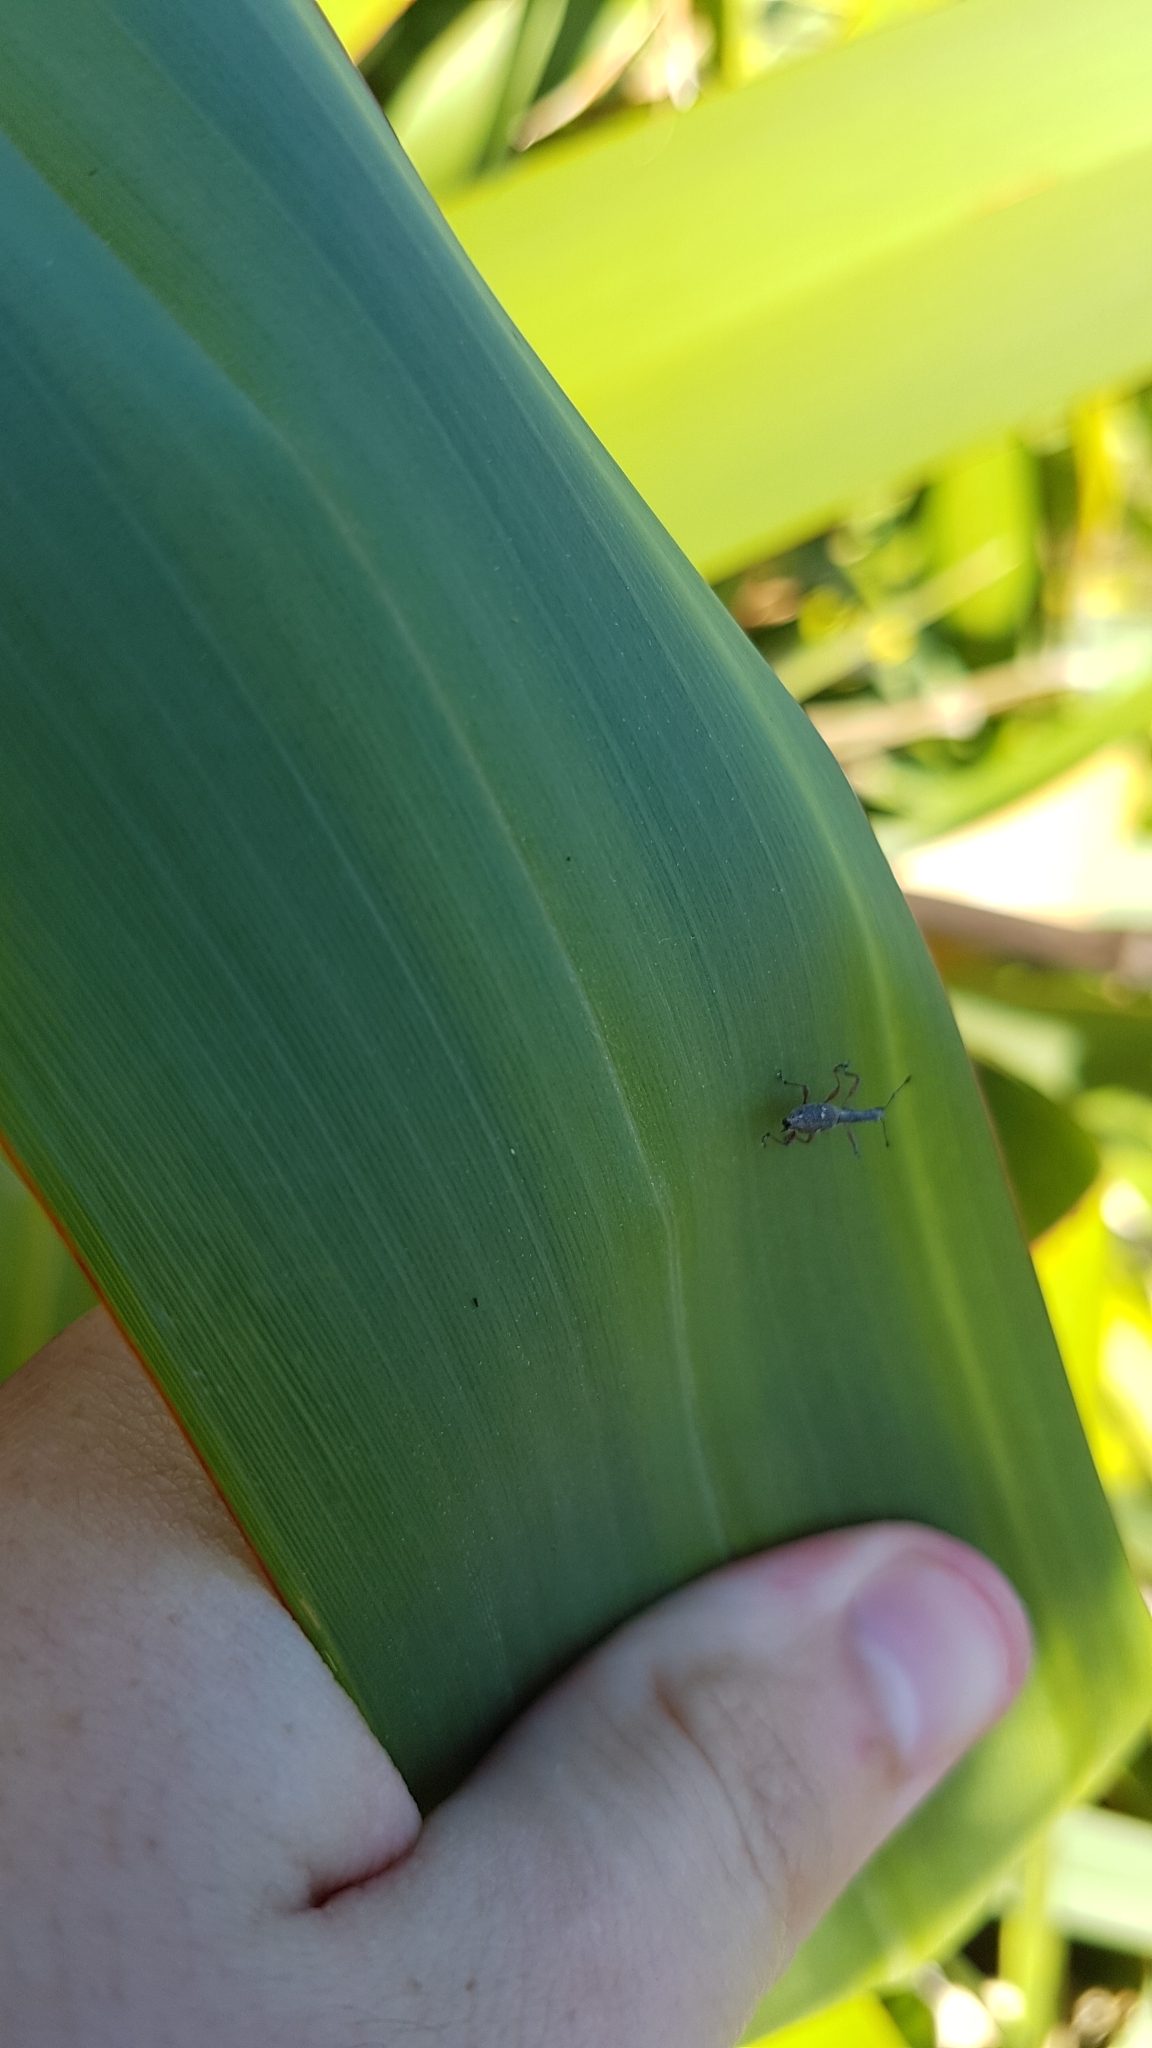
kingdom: Animalia
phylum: Arthropoda
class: Insecta
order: Coleoptera
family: Curculionidae
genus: Rhadinosomus
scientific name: Rhadinosomus acuminatus
